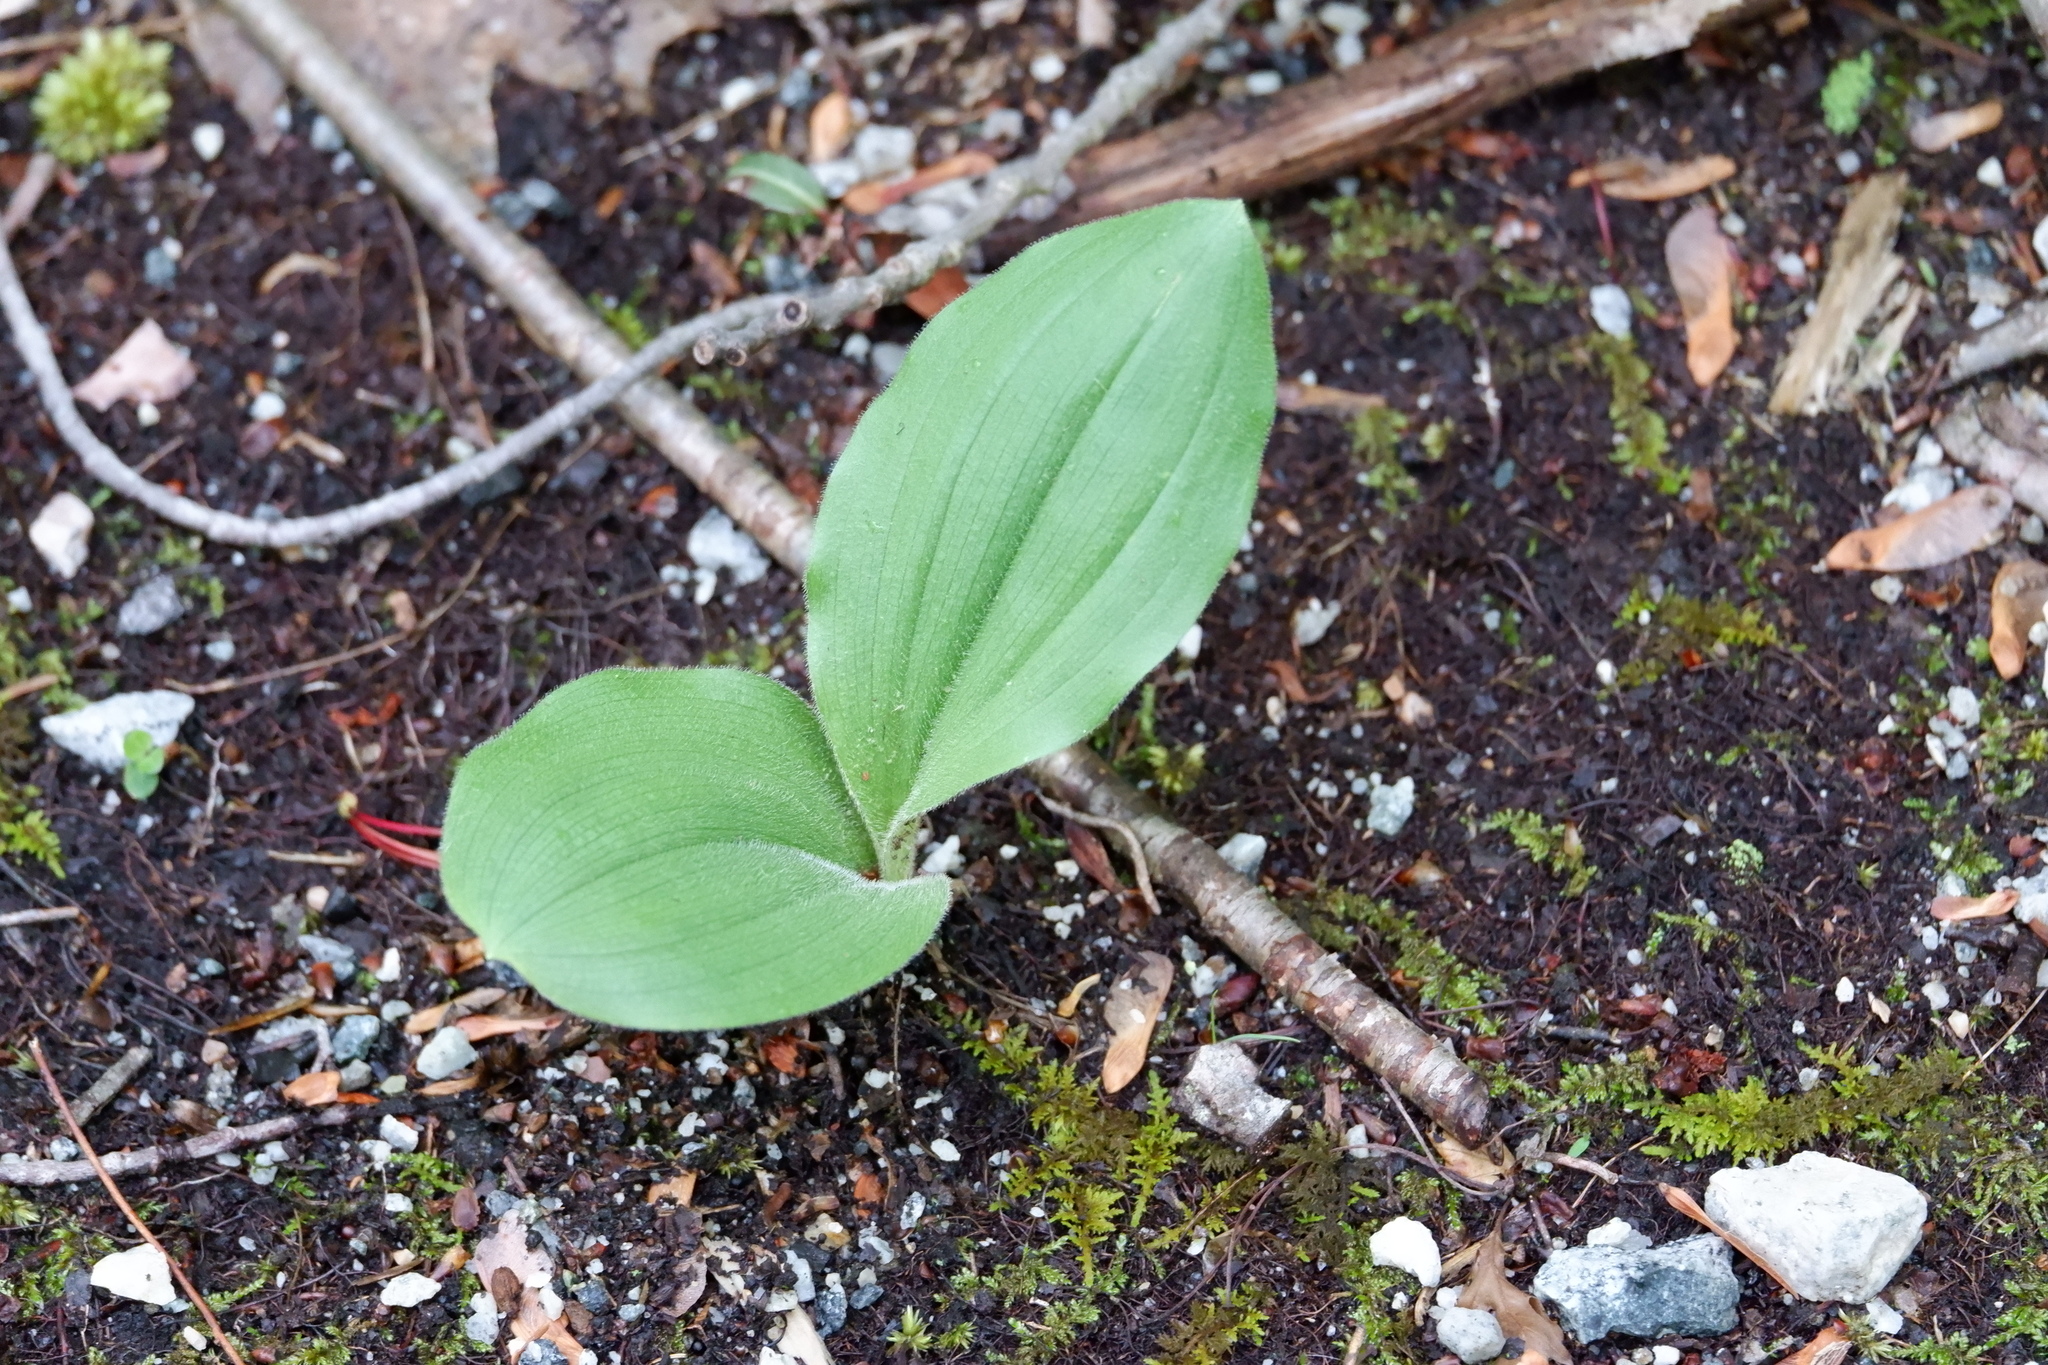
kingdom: Plantae
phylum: Tracheophyta
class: Liliopsida
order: Asparagales
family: Orchidaceae
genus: Cypripedium
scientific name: Cypripedium acaule
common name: Pink lady's-slipper
